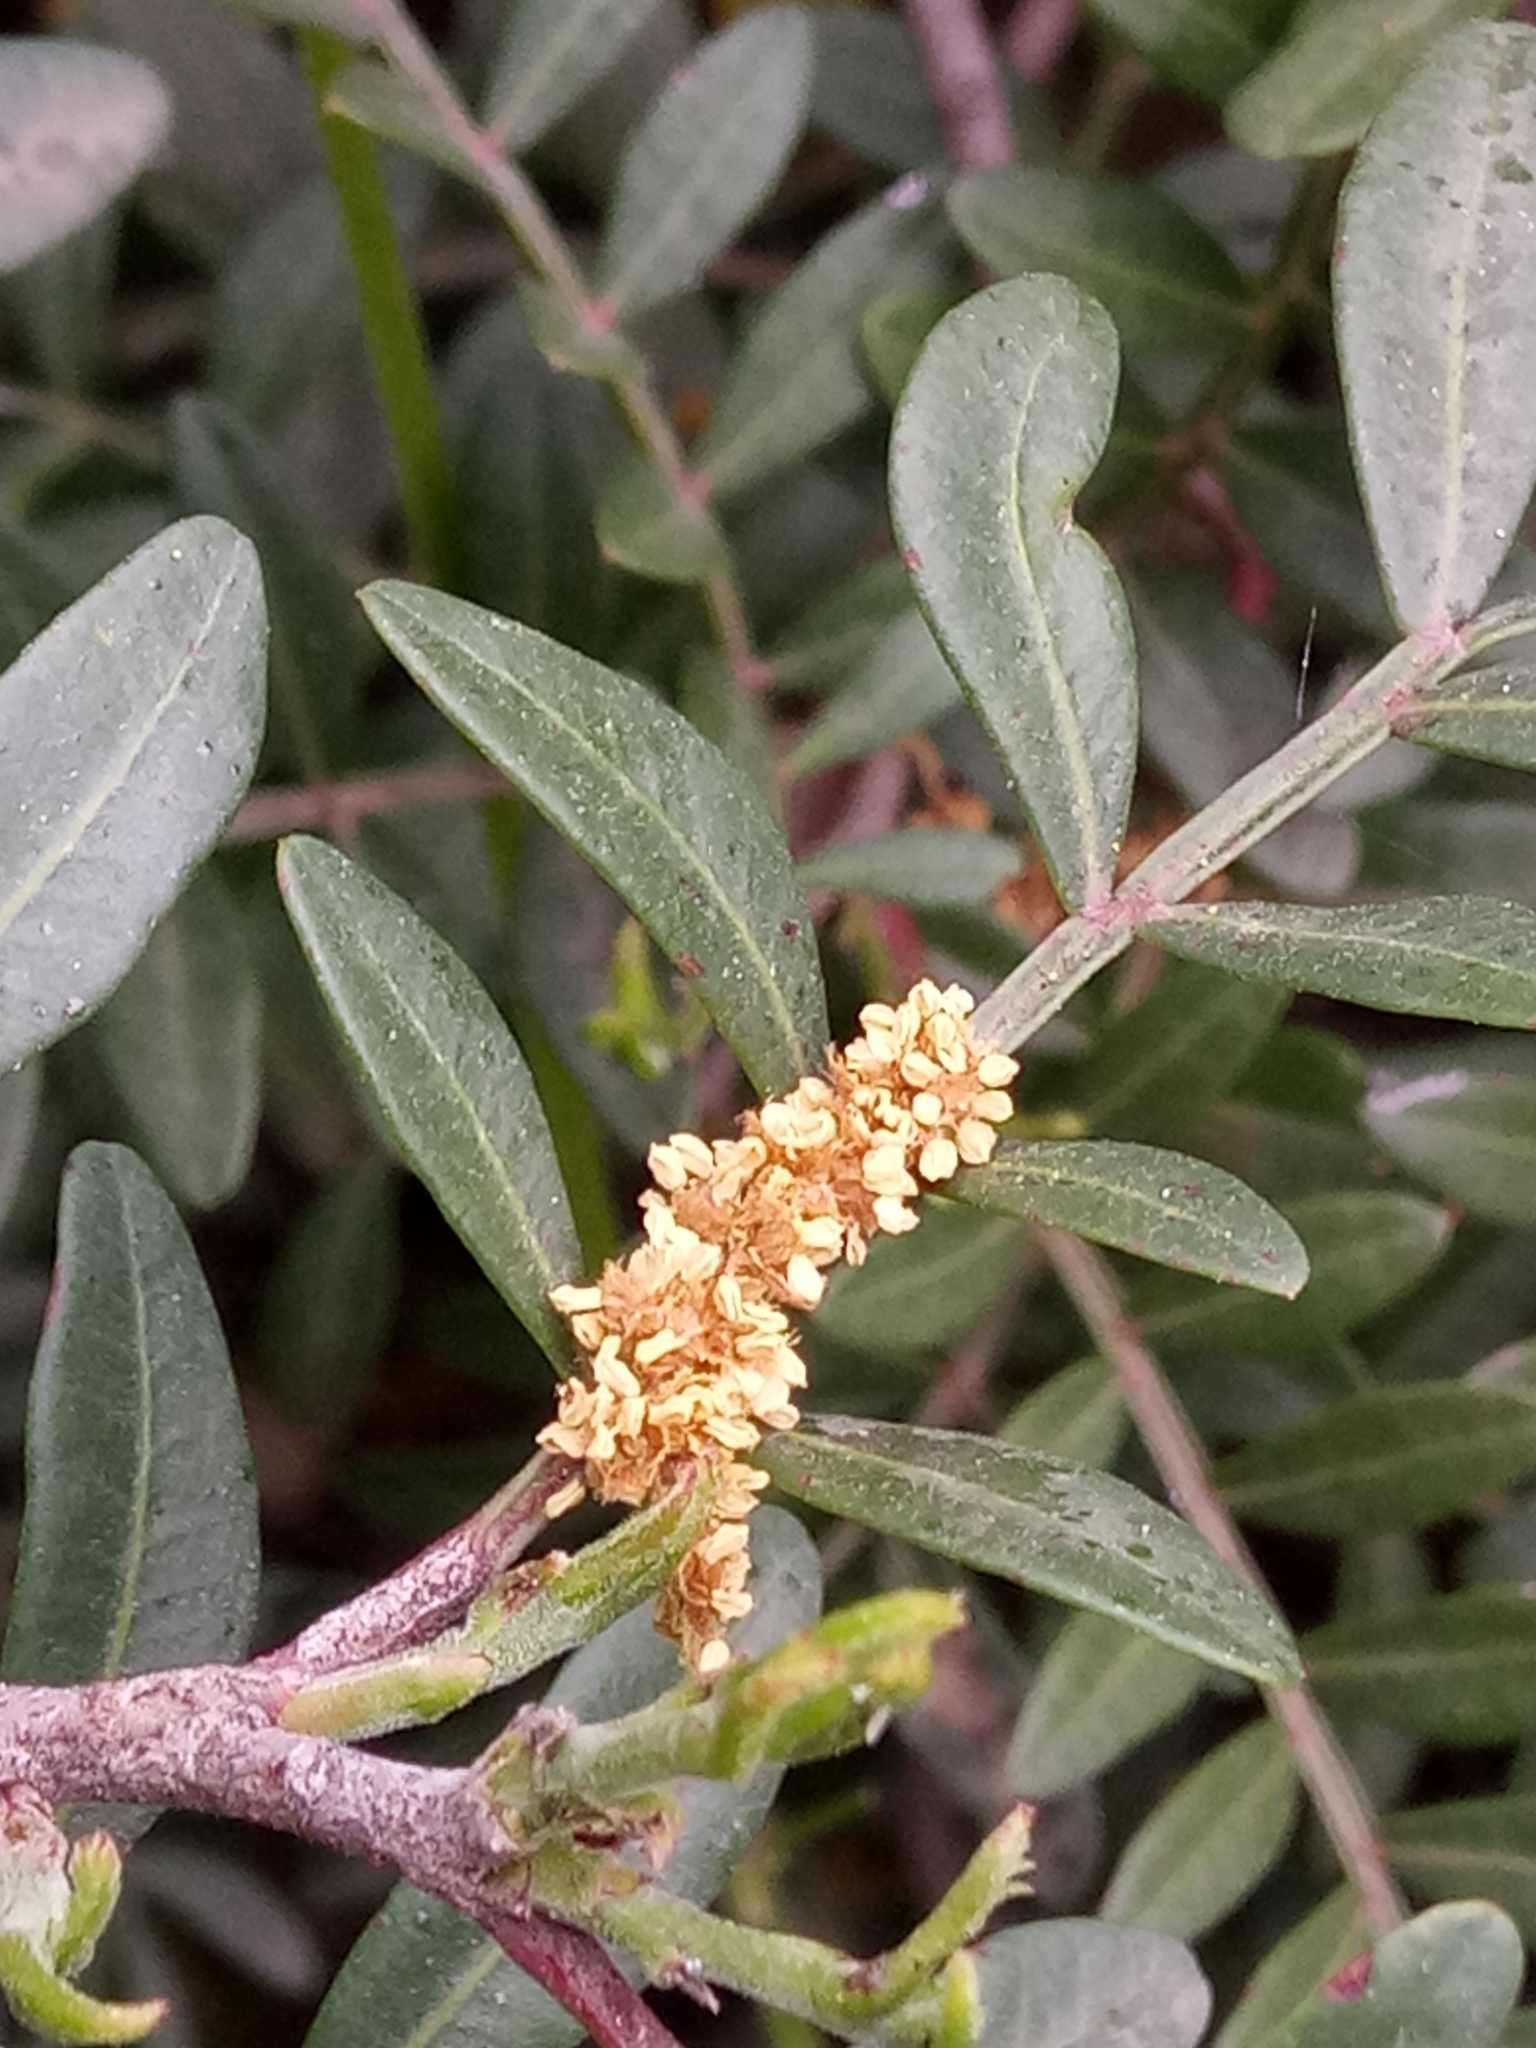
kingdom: Plantae
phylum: Tracheophyta
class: Magnoliopsida
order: Sapindales
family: Anacardiaceae
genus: Pistacia
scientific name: Pistacia lentiscus
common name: Lentisk
